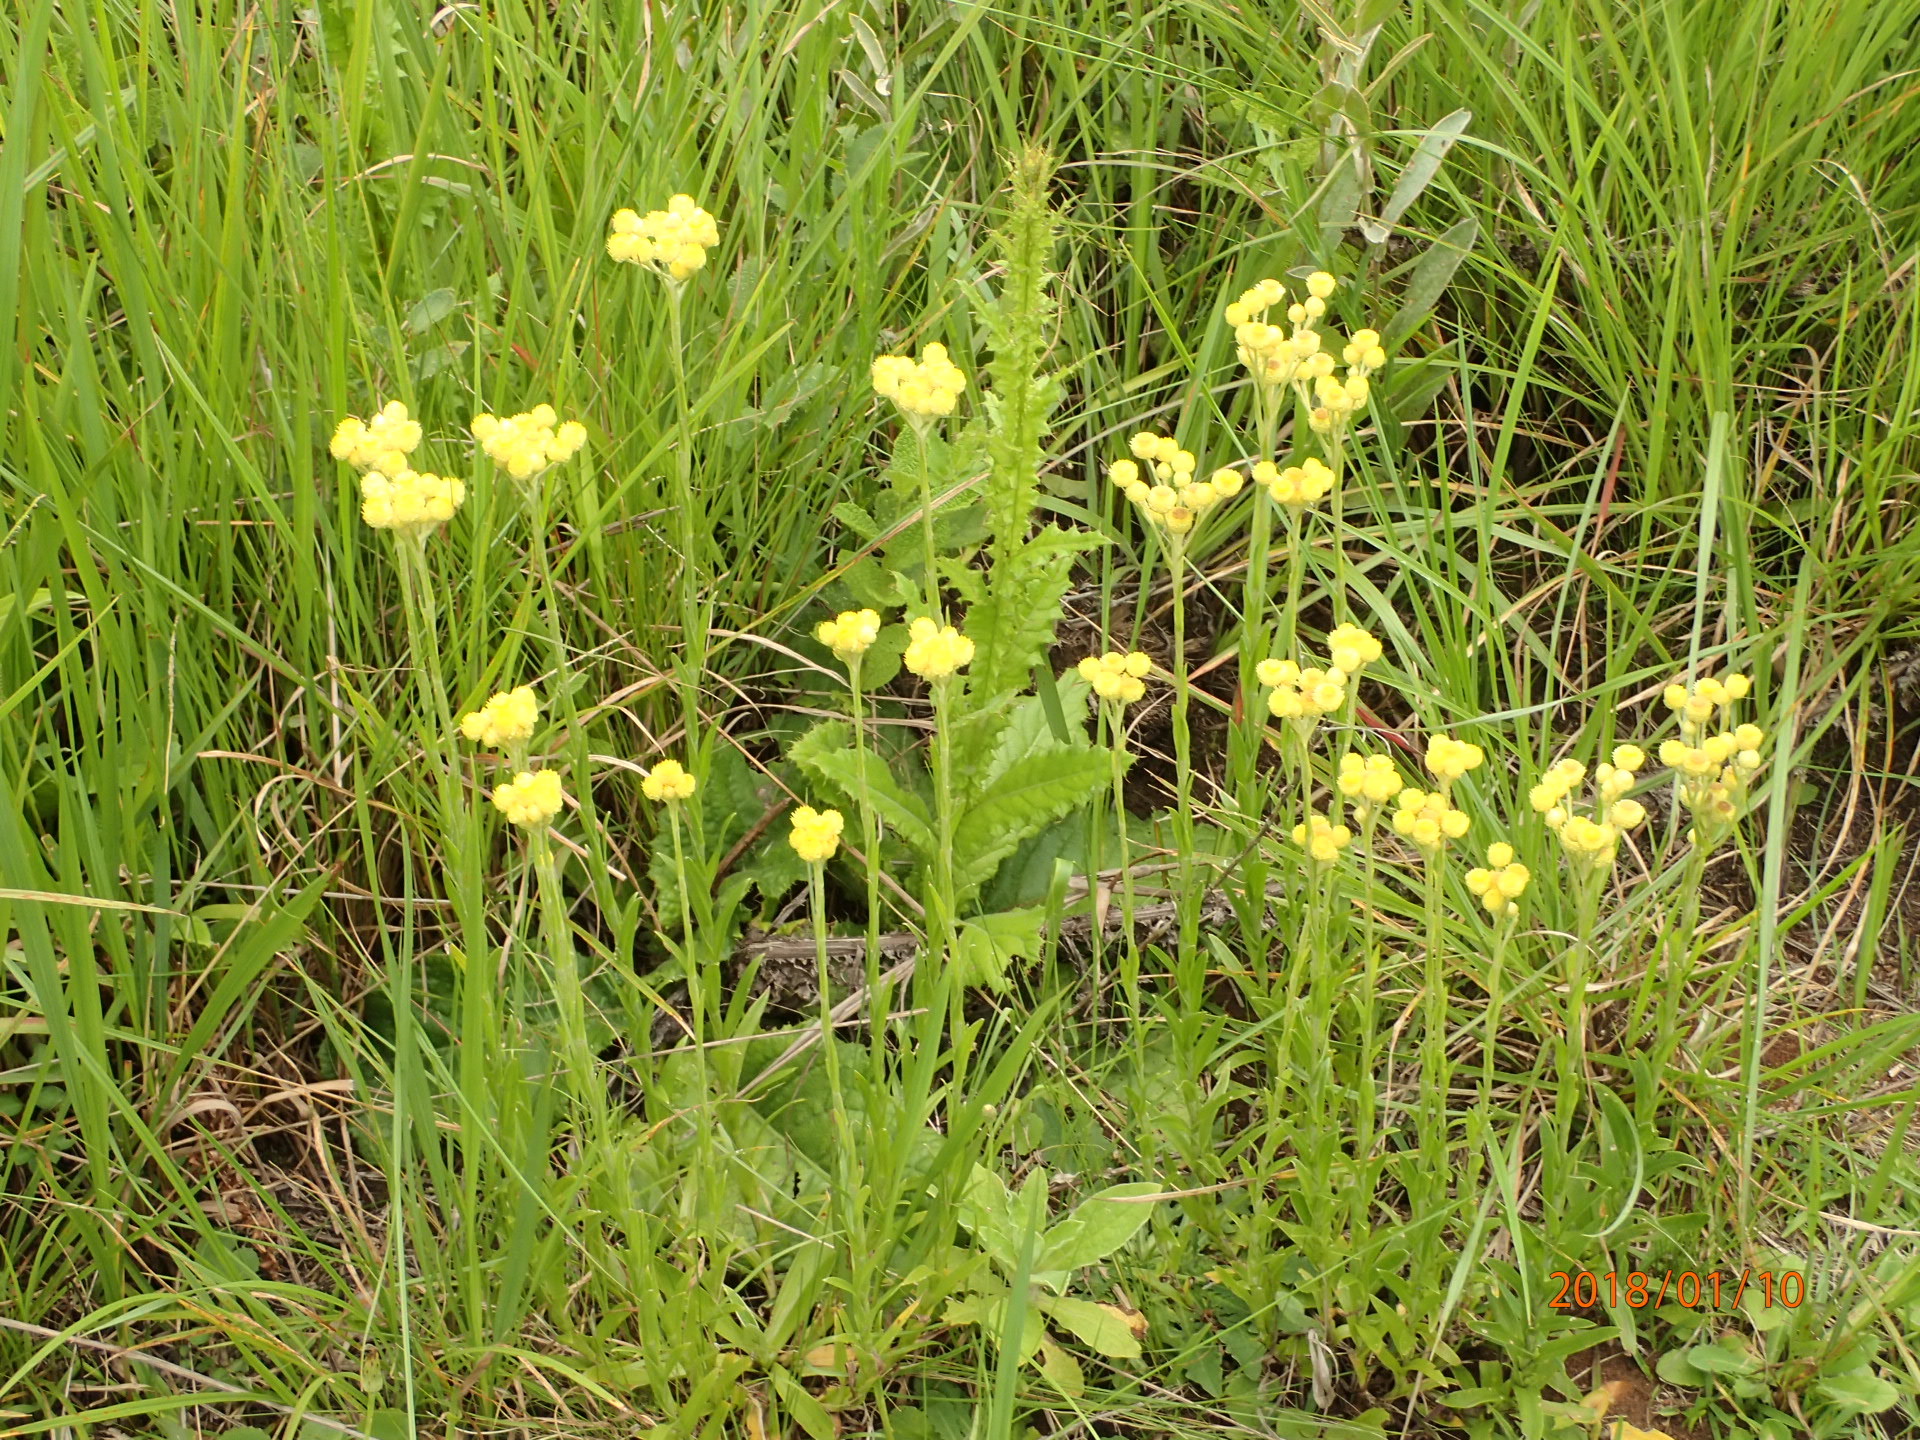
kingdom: Plantae
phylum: Tracheophyta
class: Magnoliopsida
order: Asterales
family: Asteraceae
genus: Helichrysum
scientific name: Helichrysum longifolium
